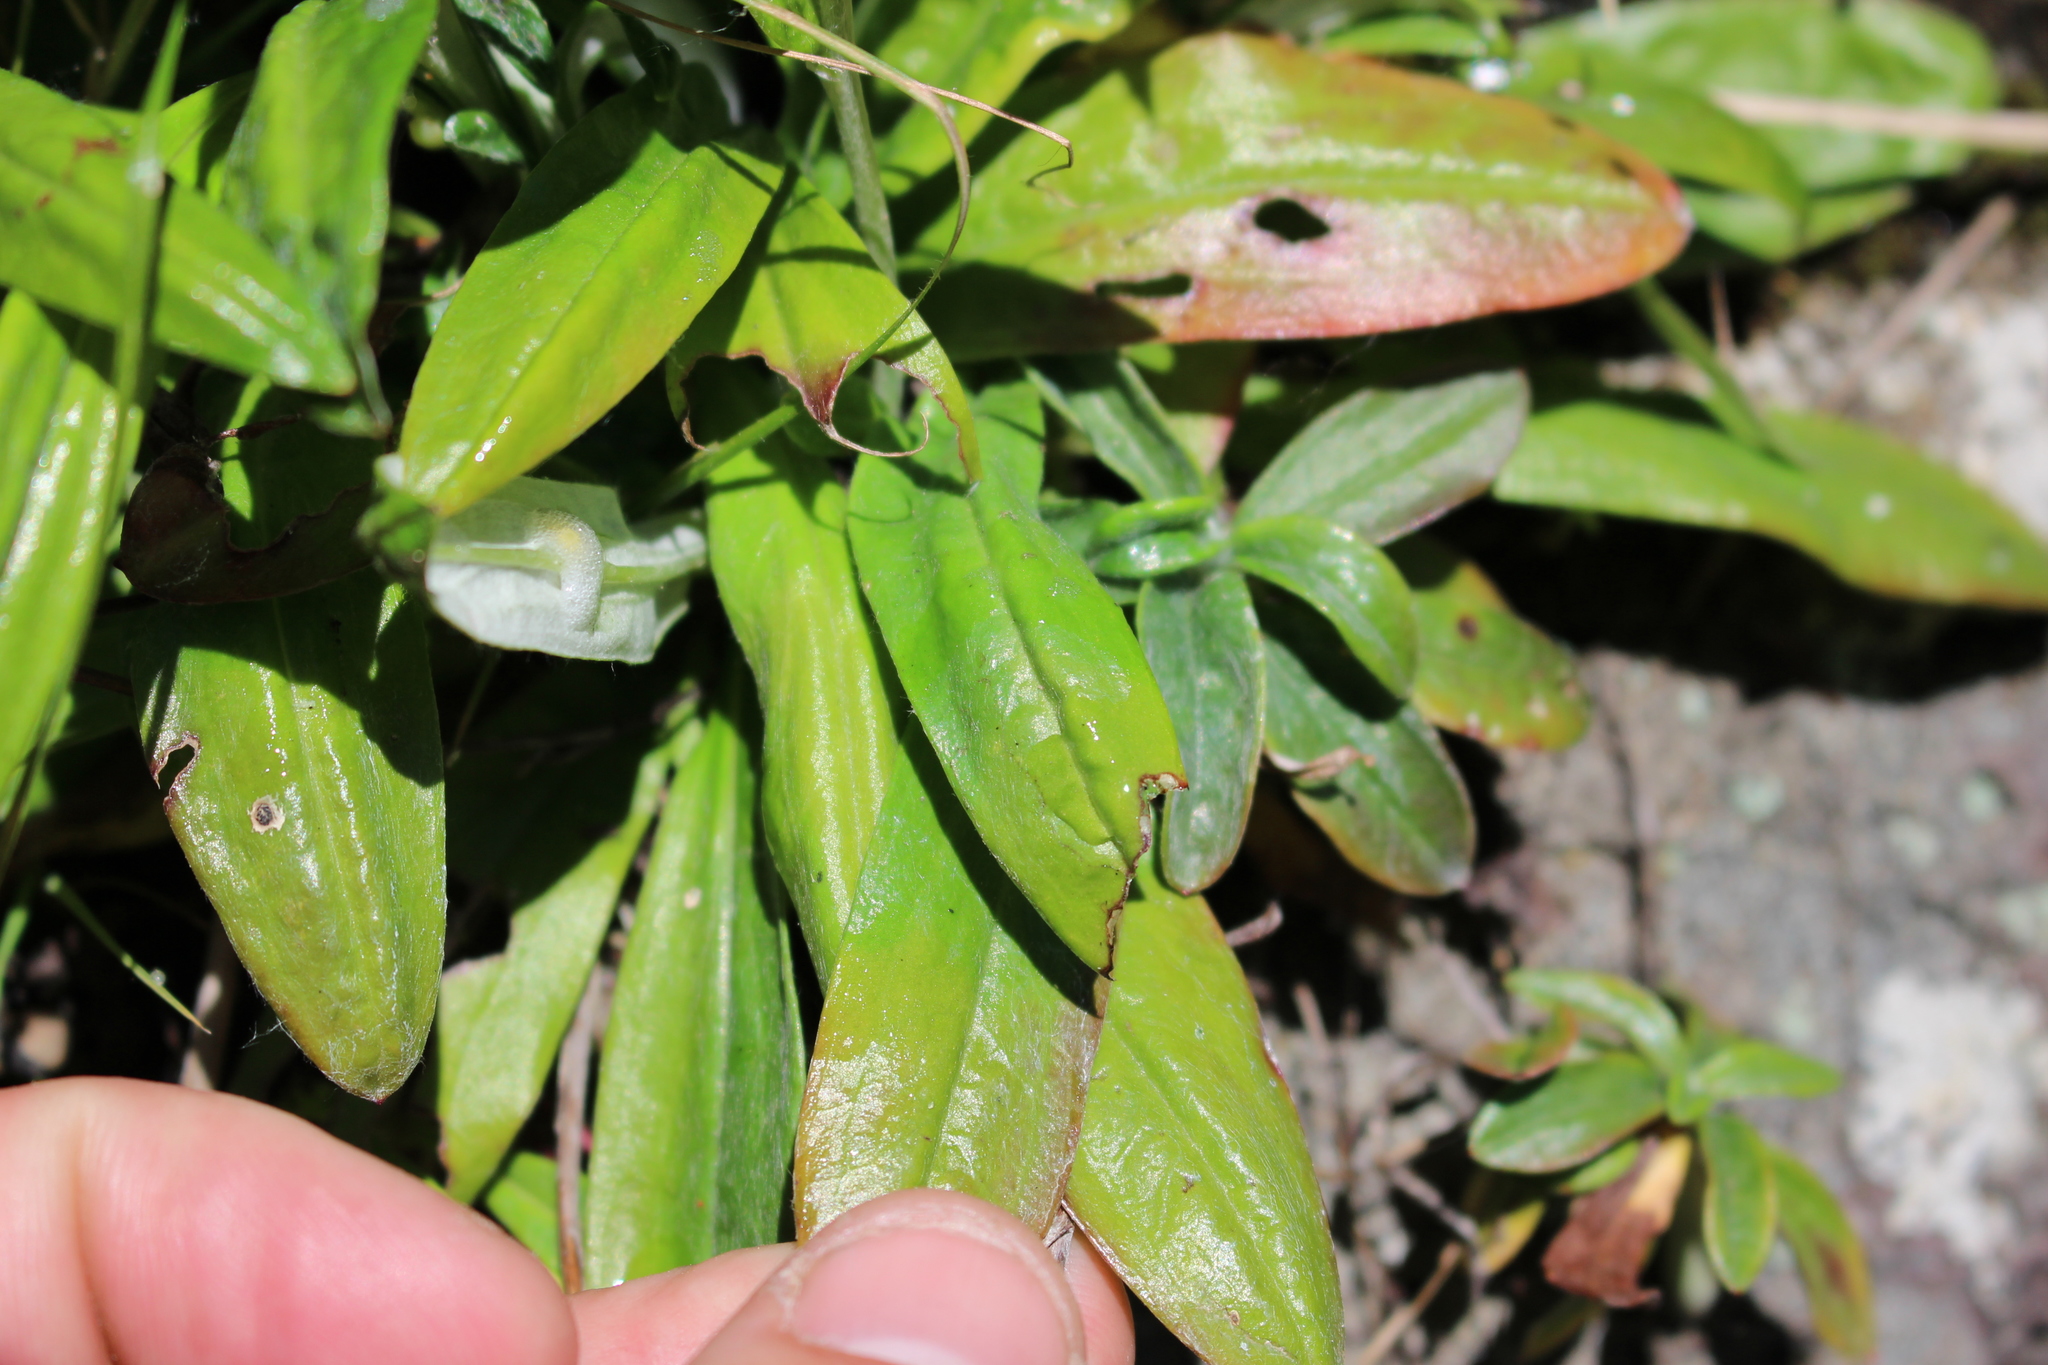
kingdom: Plantae
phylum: Tracheophyta
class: Magnoliopsida
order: Asterales
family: Asteraceae
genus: Euchiton
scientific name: Euchiton japonicus
